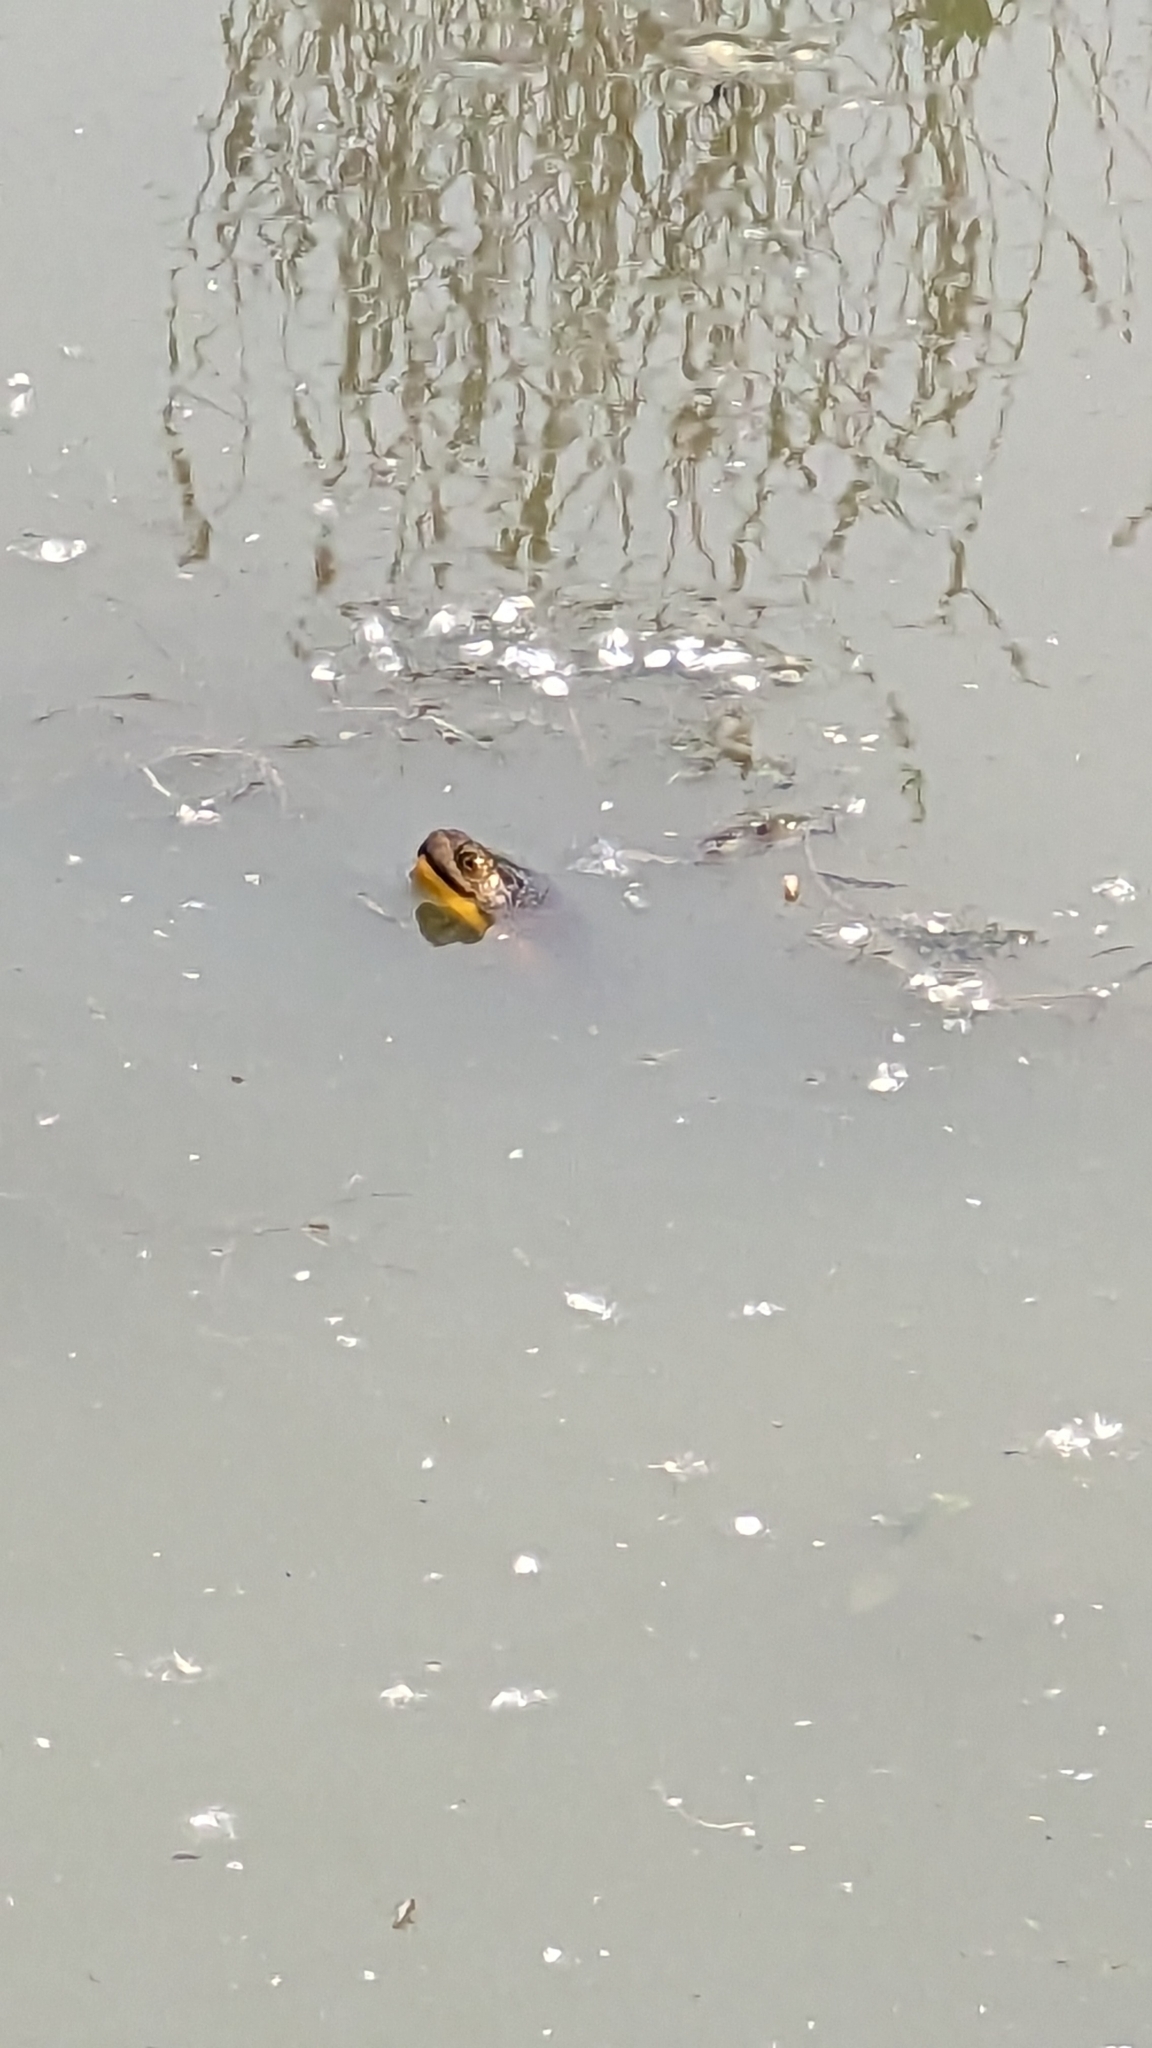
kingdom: Animalia
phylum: Chordata
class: Testudines
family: Emydidae
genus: Emys
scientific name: Emys blandingii
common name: Blanding's turtle
